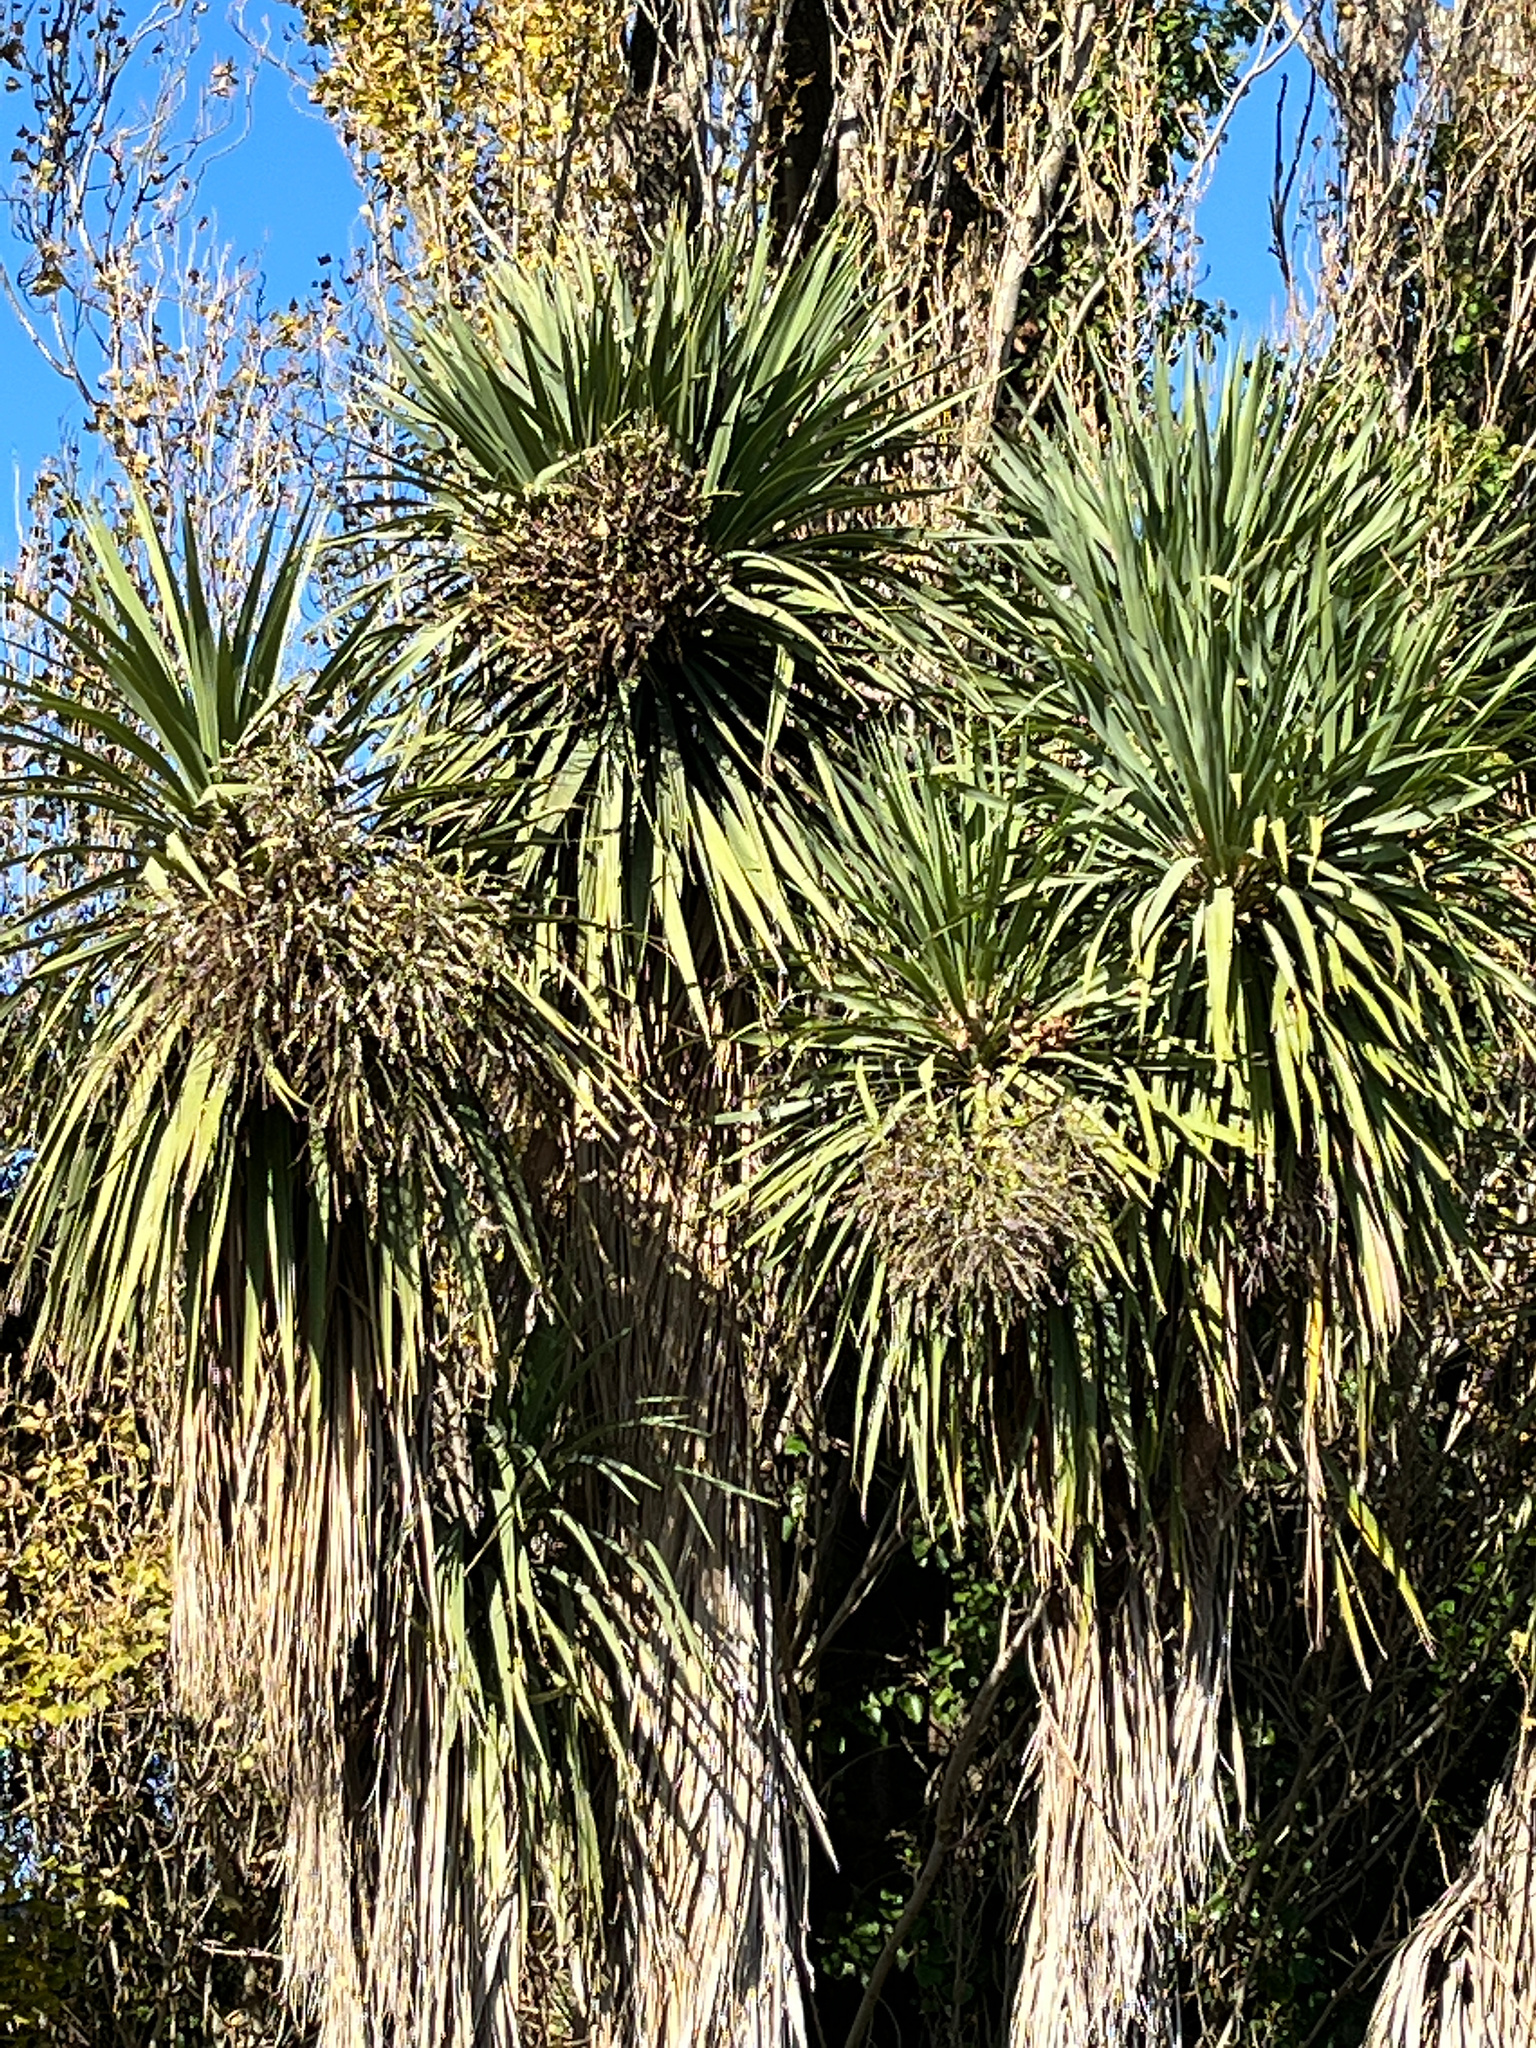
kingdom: Plantae
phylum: Tracheophyta
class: Liliopsida
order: Asparagales
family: Asparagaceae
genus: Cordyline
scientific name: Cordyline australis
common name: Cabbage-palm
